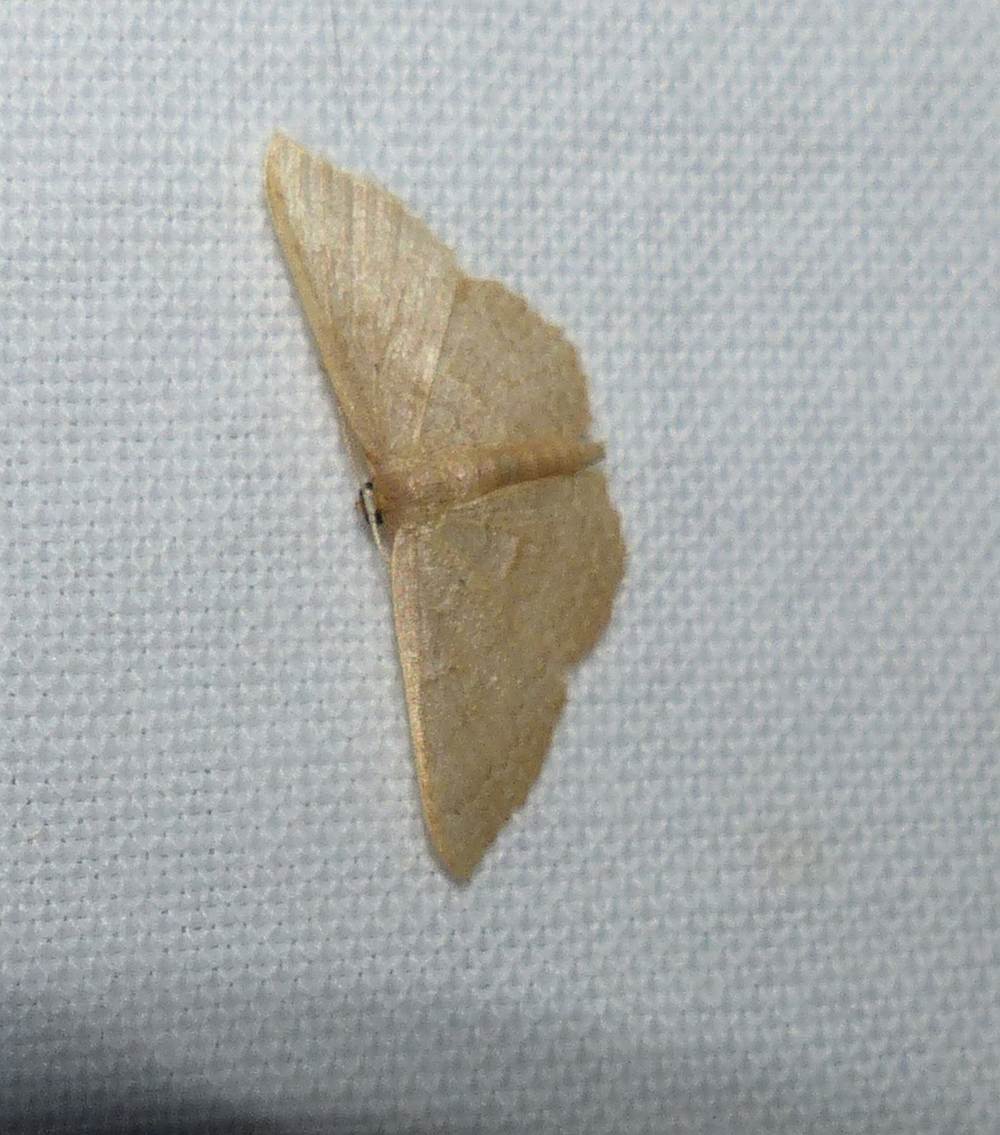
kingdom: Animalia
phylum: Arthropoda
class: Insecta
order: Lepidoptera
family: Geometridae
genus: Pleuroprucha
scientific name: Pleuroprucha insulsaria
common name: Common tan wave
